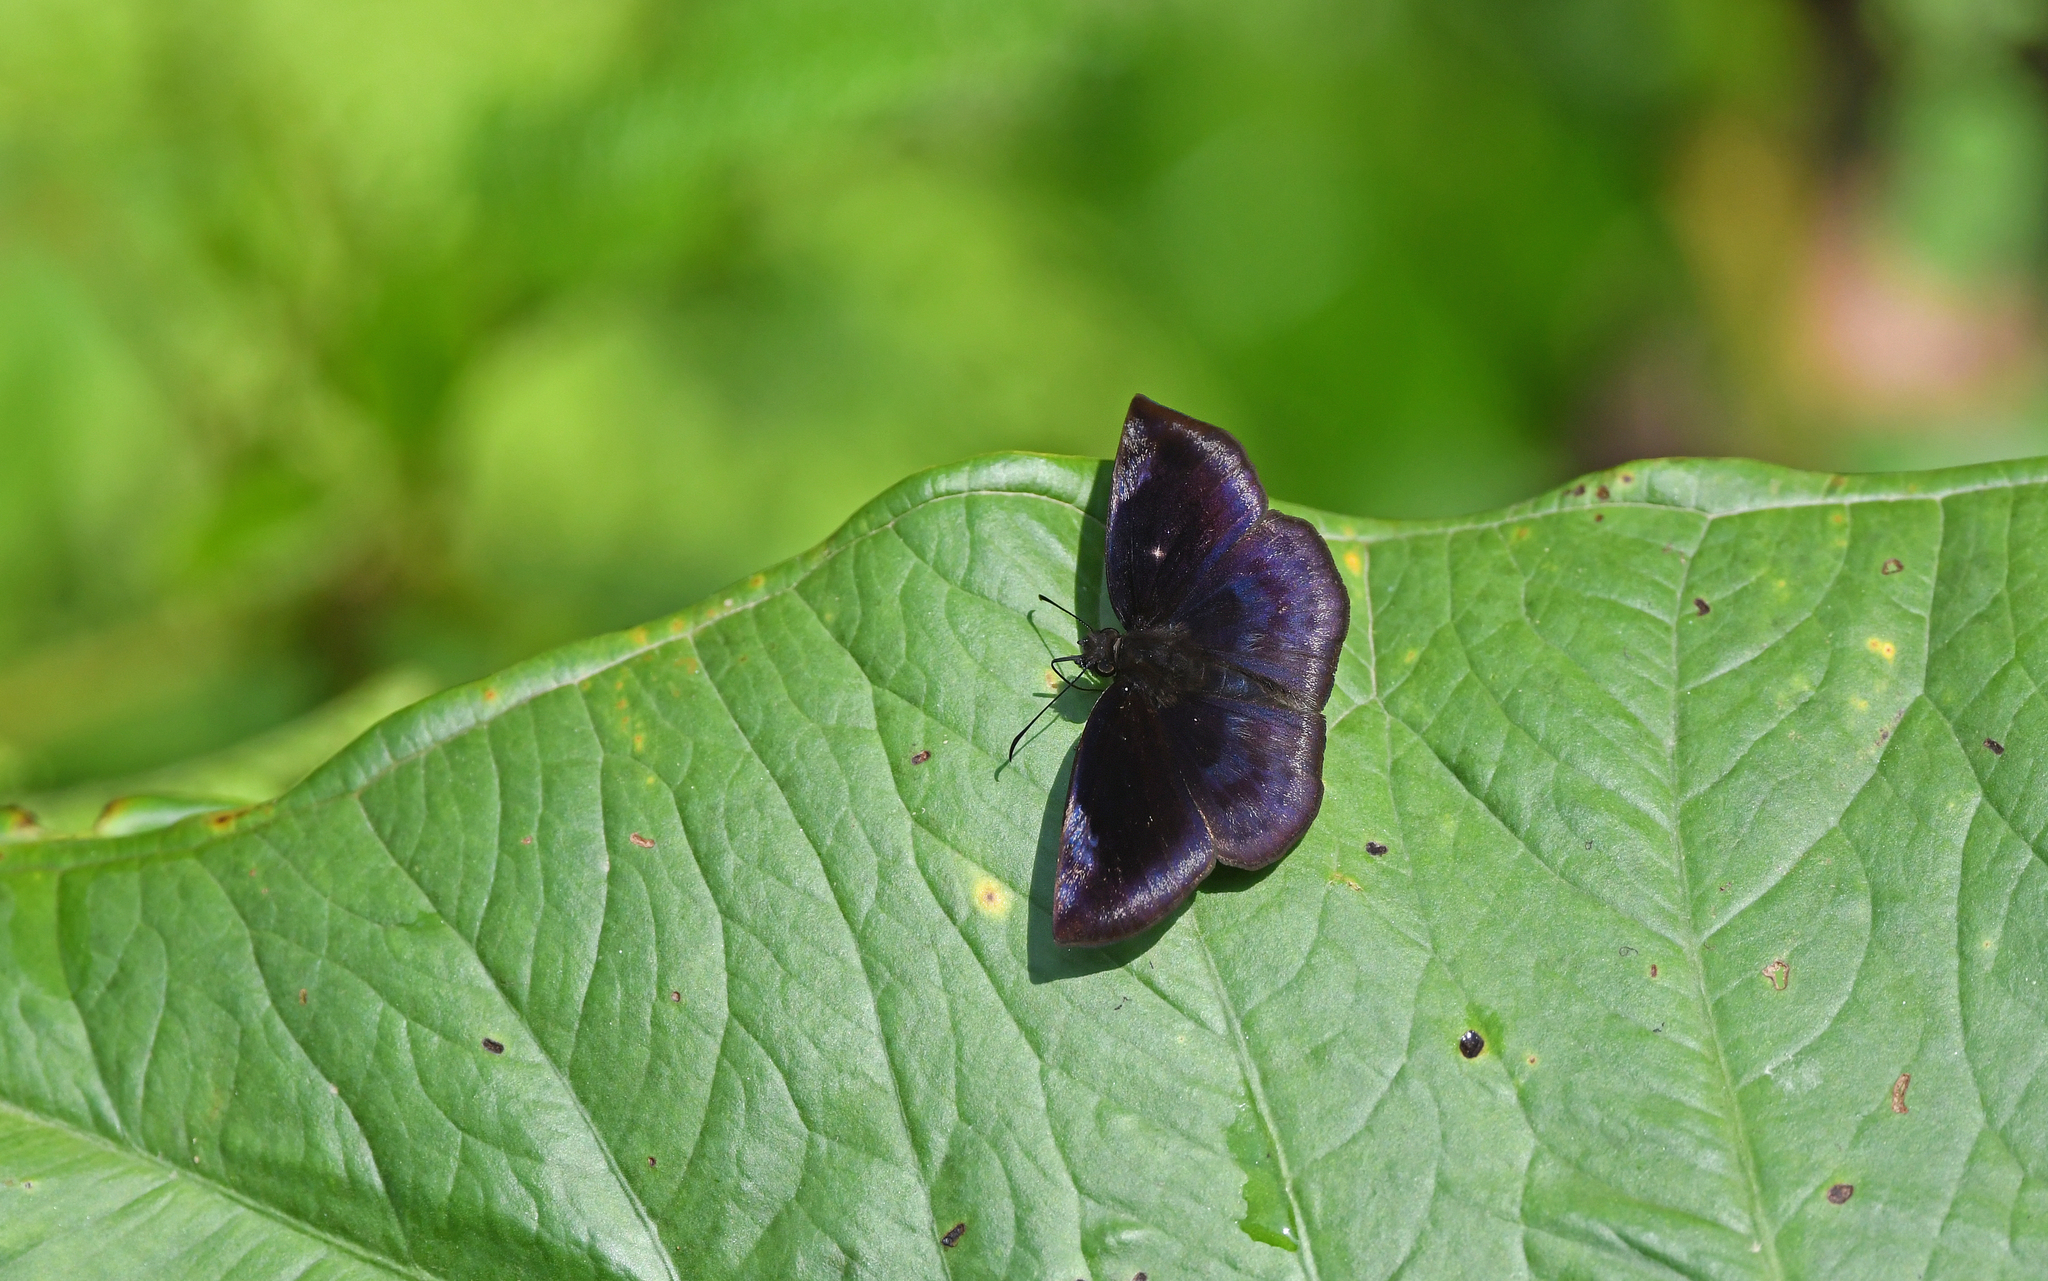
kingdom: Animalia
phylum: Arthropoda
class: Insecta
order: Lepidoptera
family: Hesperiidae
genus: Achlyodes
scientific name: Achlyodes thraso
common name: Sickle-winged skipper
